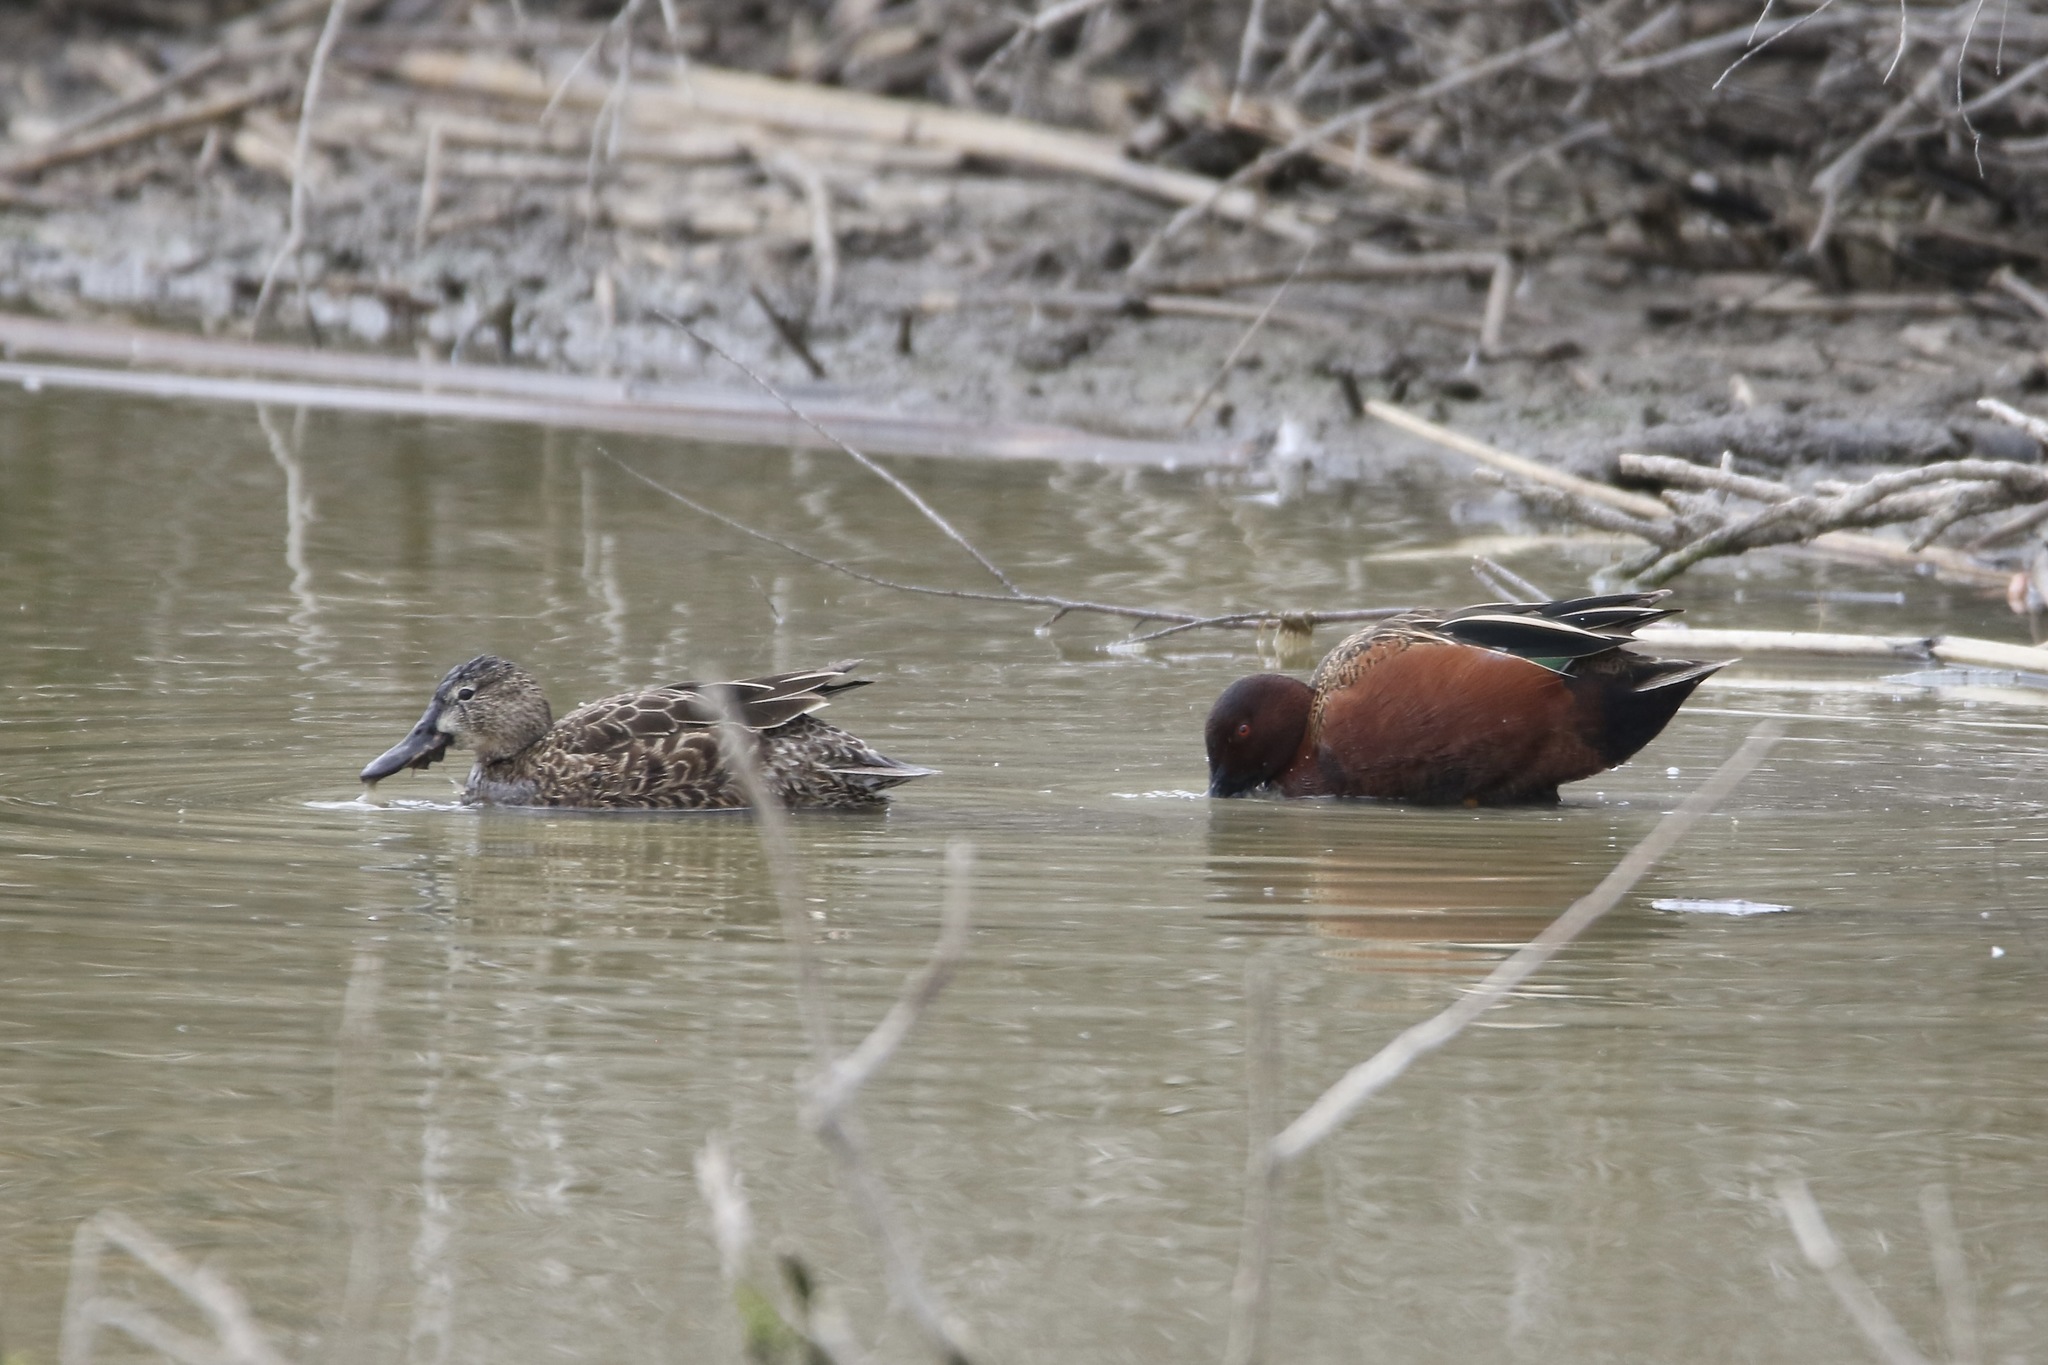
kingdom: Animalia
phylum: Chordata
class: Aves
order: Anseriformes
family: Anatidae
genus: Spatula
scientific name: Spatula cyanoptera
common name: Cinnamon teal
